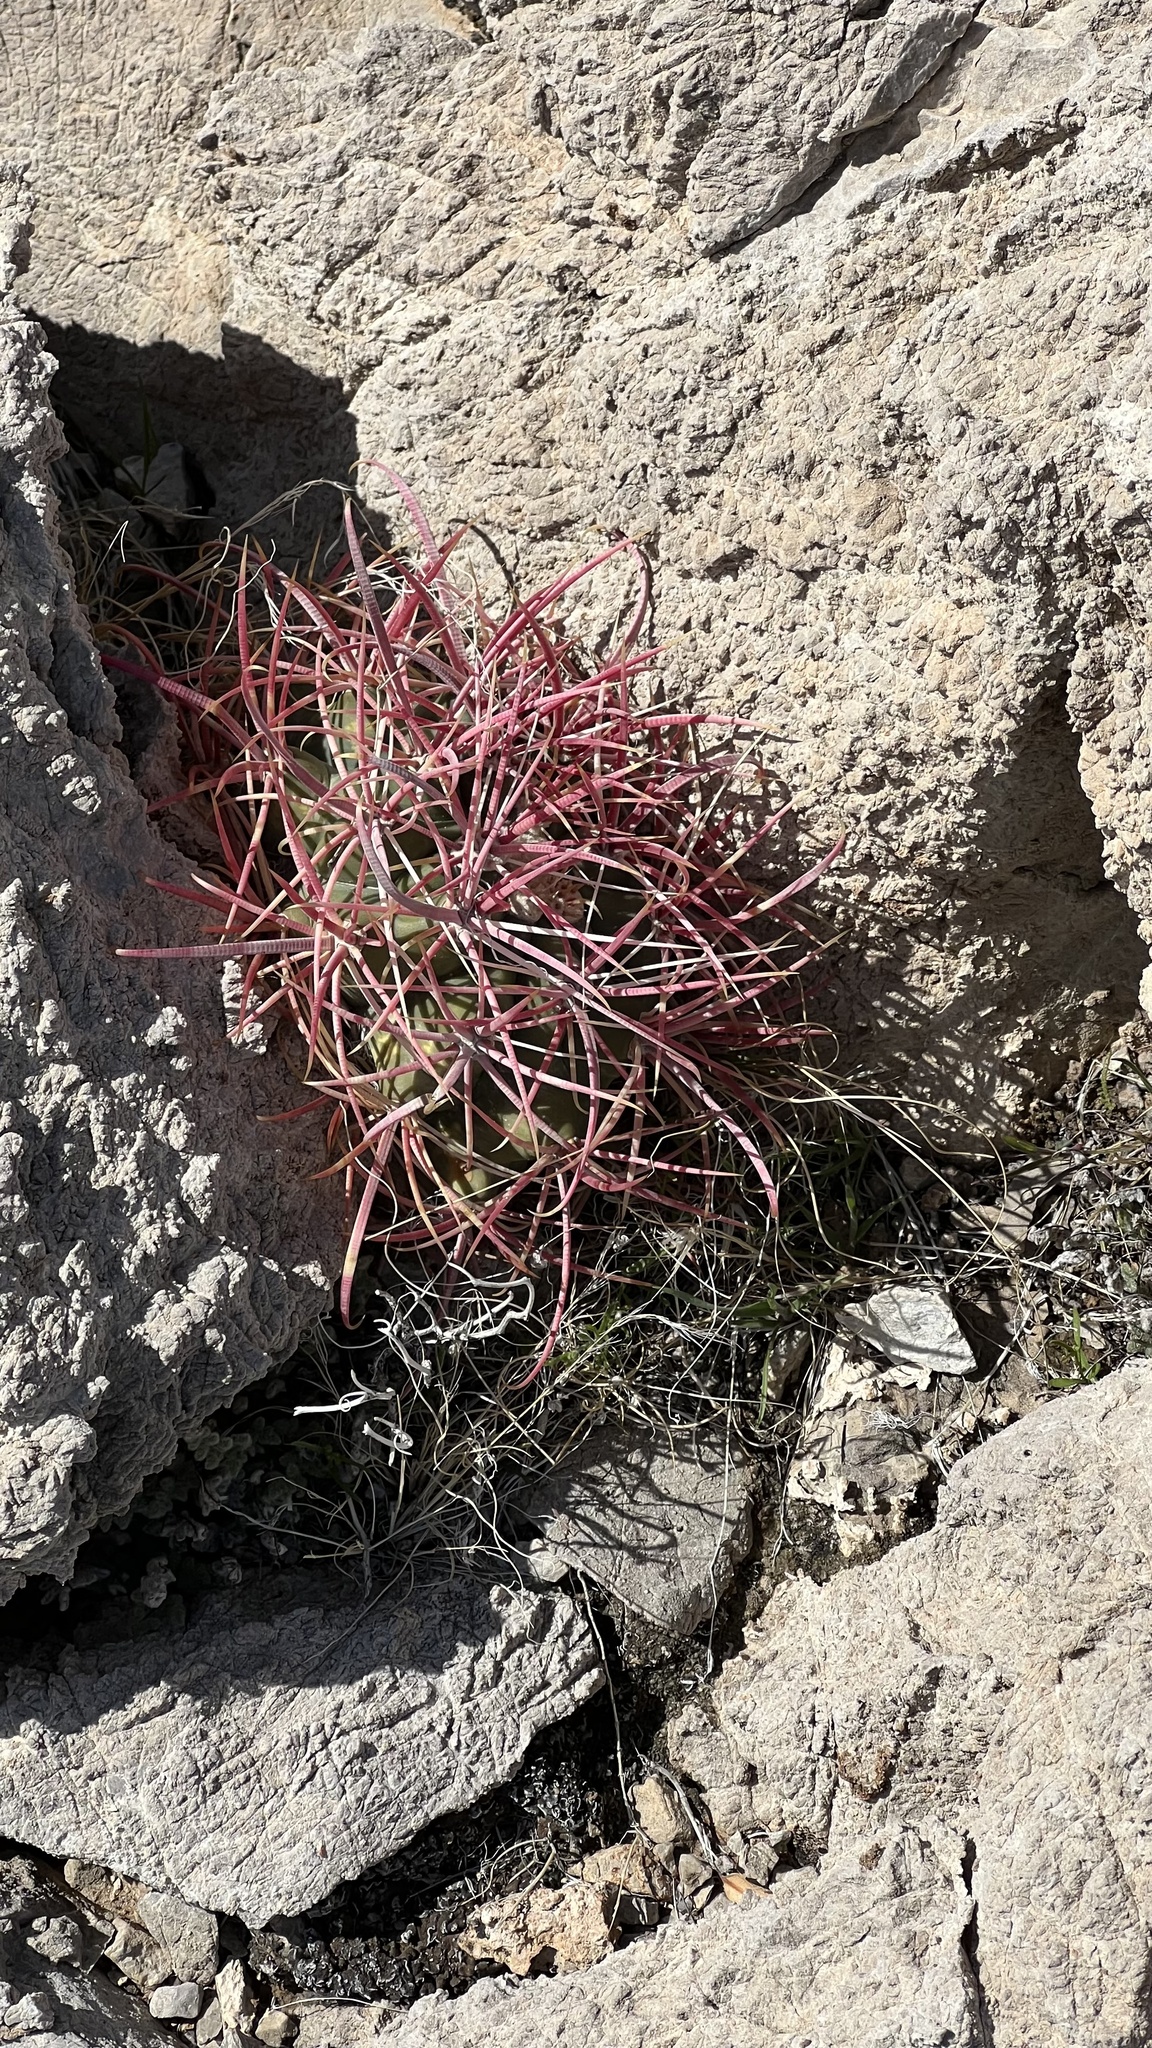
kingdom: Plantae
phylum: Tracheophyta
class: Magnoliopsida
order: Caryophyllales
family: Cactaceae
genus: Ferocactus
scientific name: Ferocactus cylindraceus
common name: California barrel cactus
